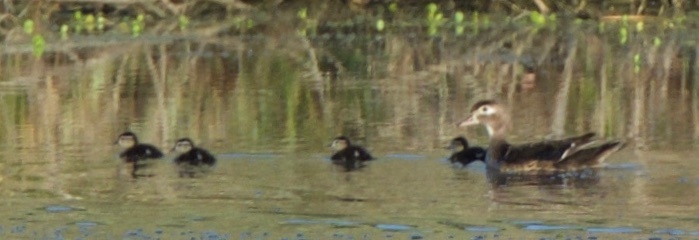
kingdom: Animalia
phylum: Chordata
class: Aves
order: Anseriformes
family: Anatidae
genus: Aix
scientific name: Aix sponsa
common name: Wood duck
